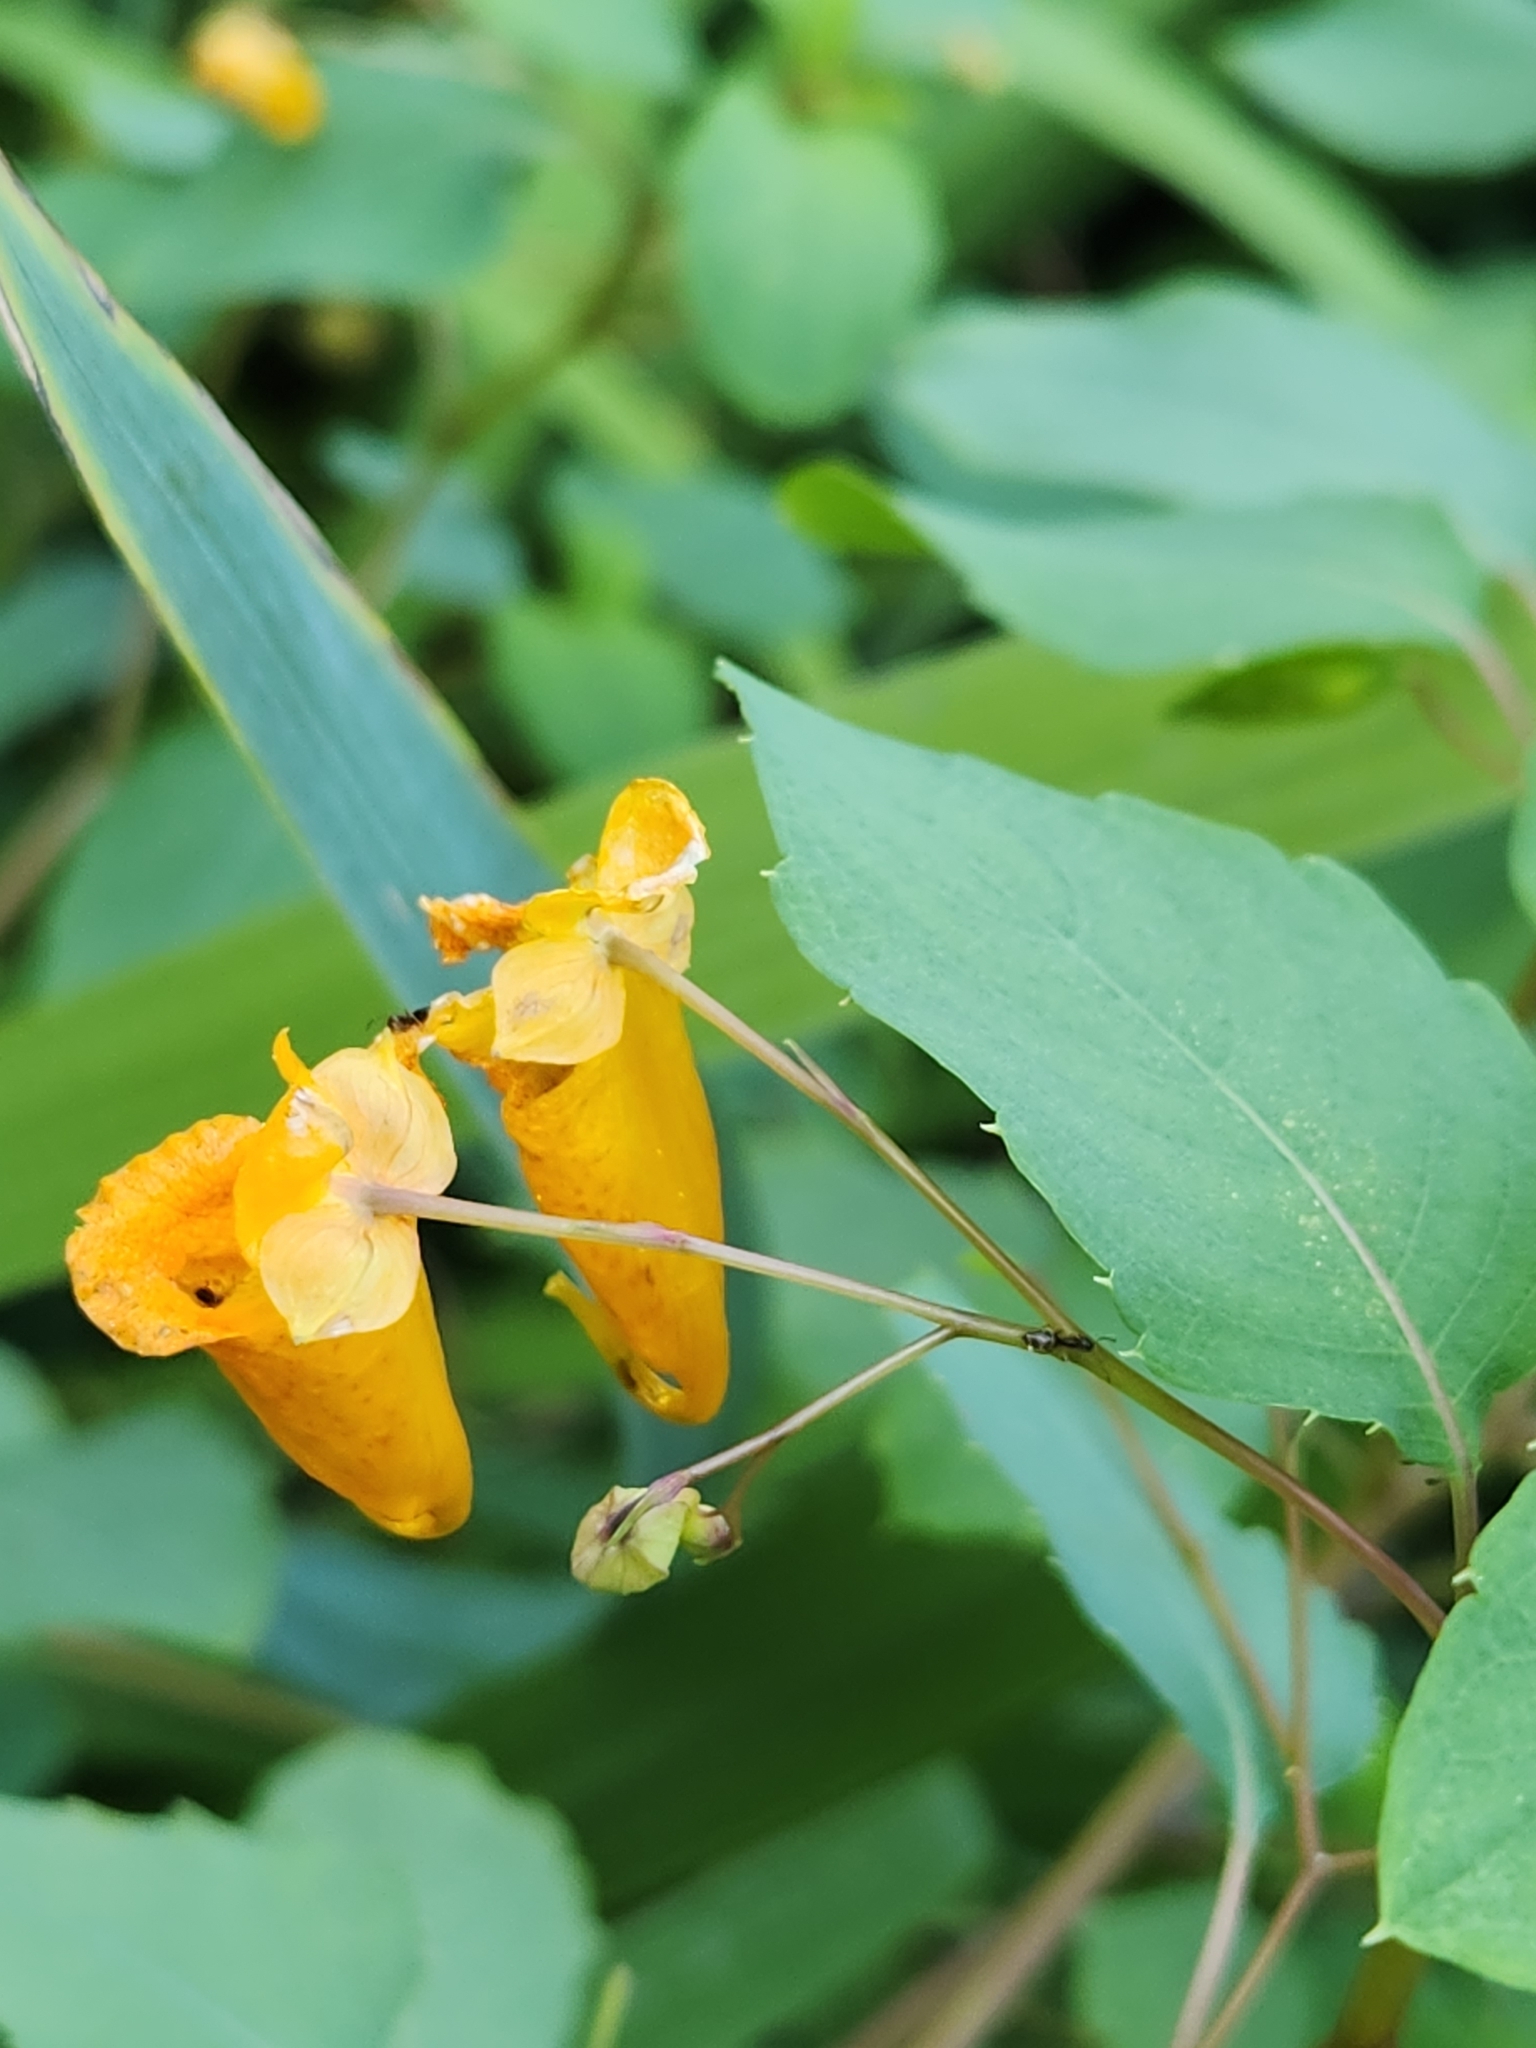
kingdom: Plantae
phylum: Tracheophyta
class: Magnoliopsida
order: Ericales
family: Balsaminaceae
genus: Impatiens
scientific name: Impatiens capensis
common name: Orange balsam
